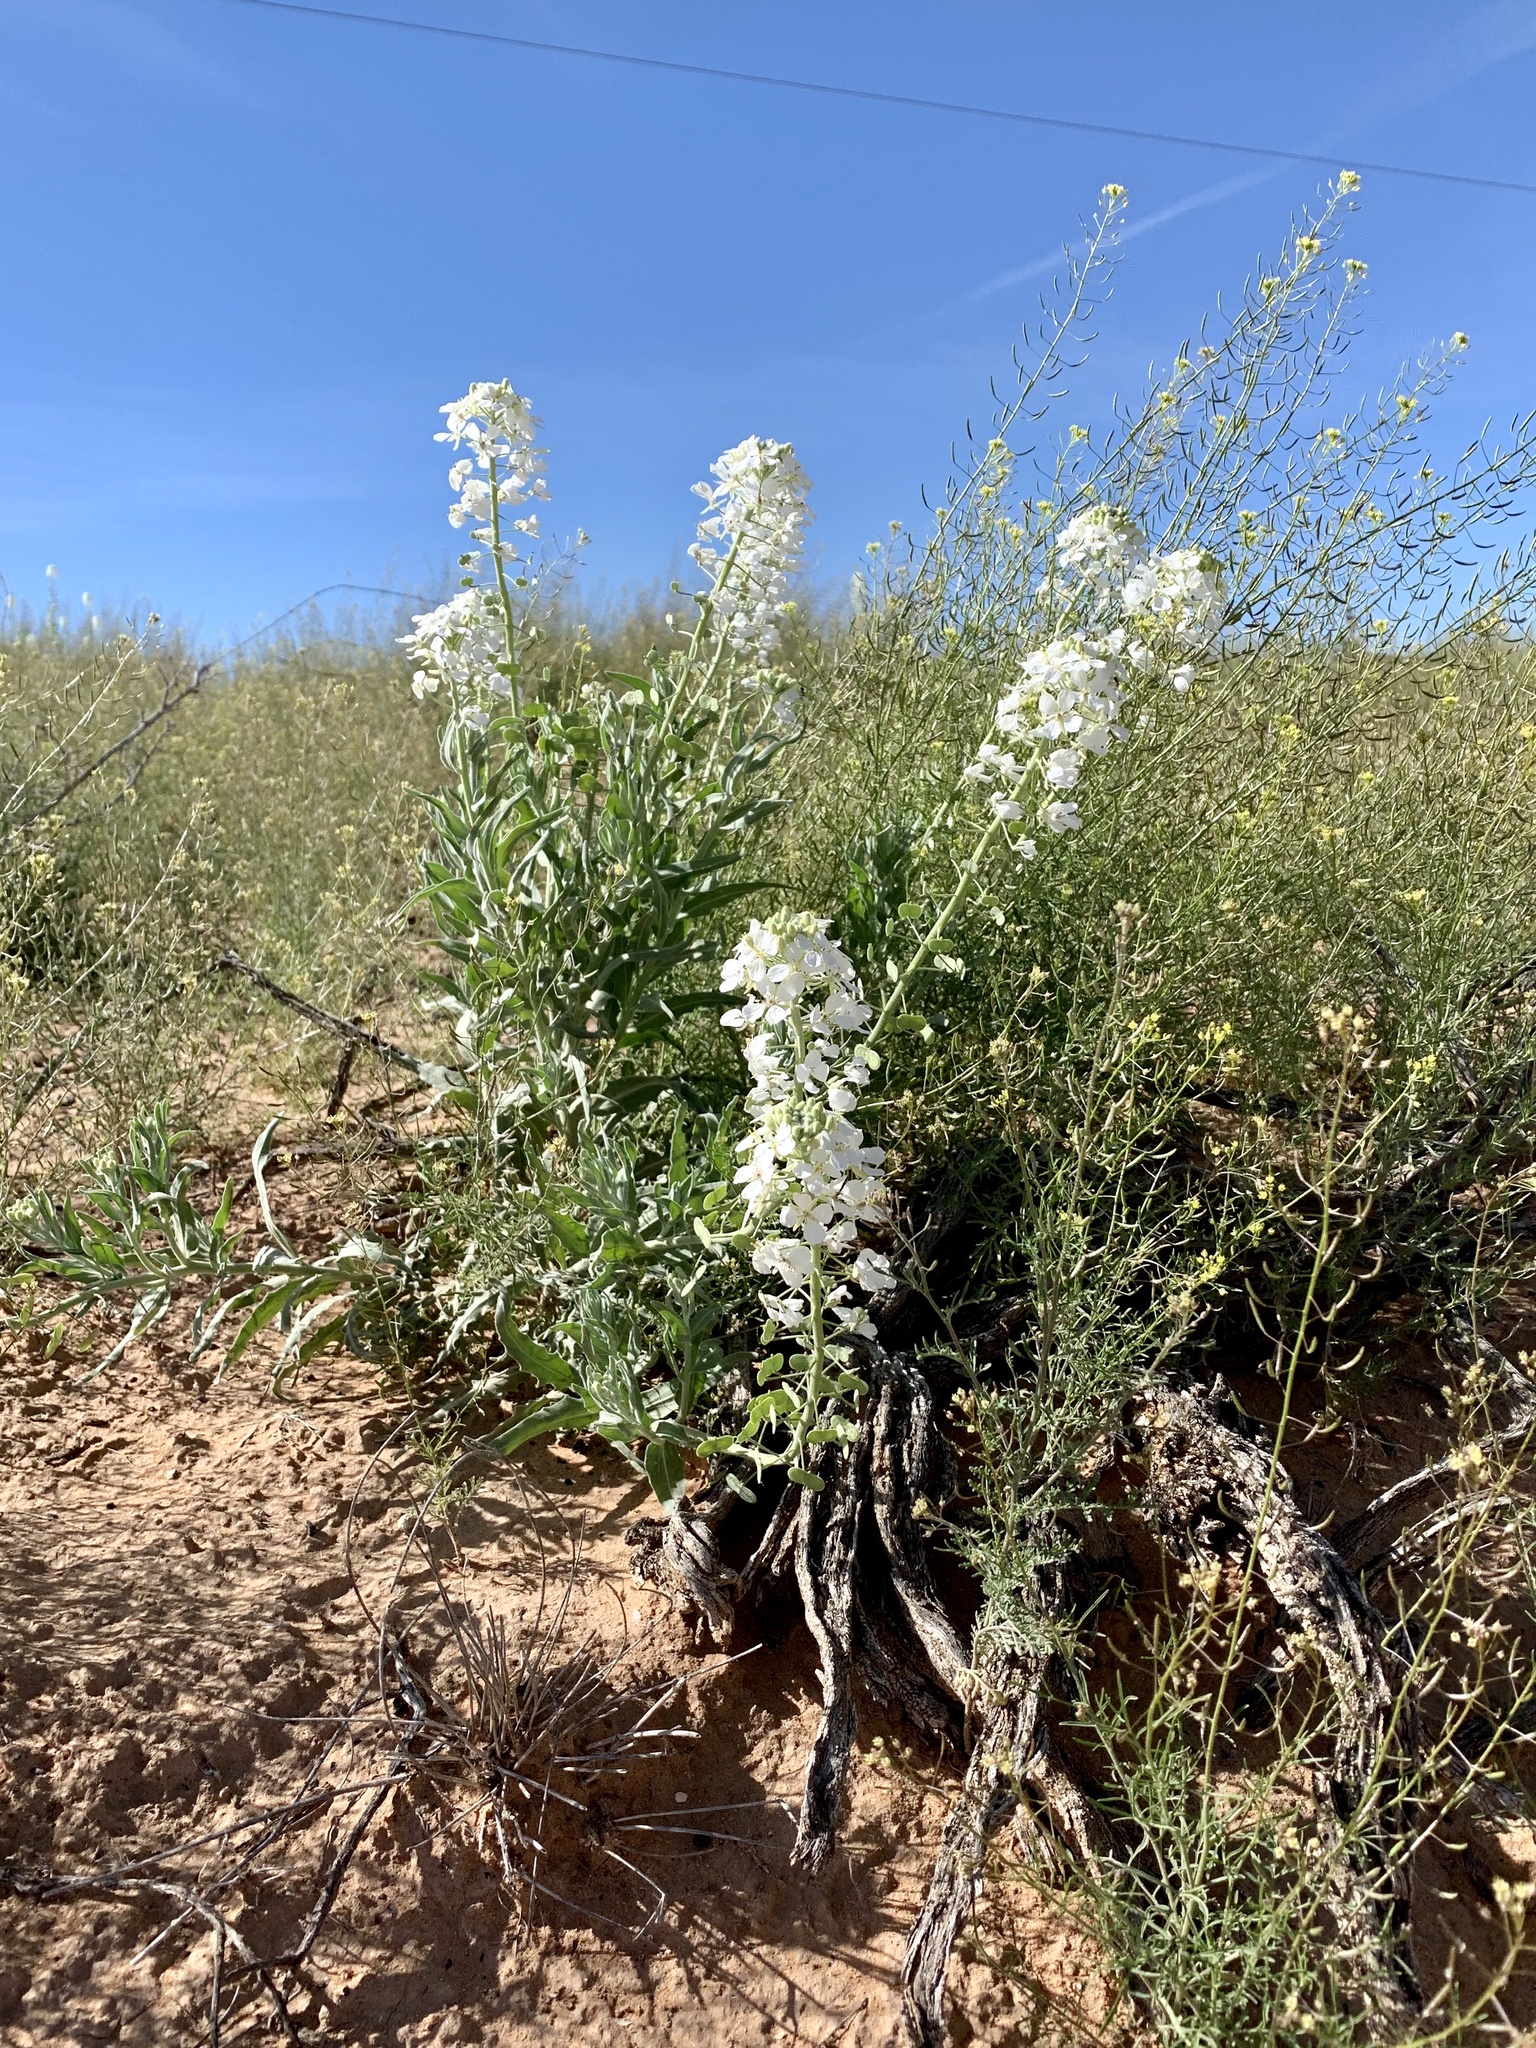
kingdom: Plantae
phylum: Tracheophyta
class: Magnoliopsida
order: Brassicales
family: Brassicaceae
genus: Dimorphocarpa
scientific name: Dimorphocarpa wislizenii
